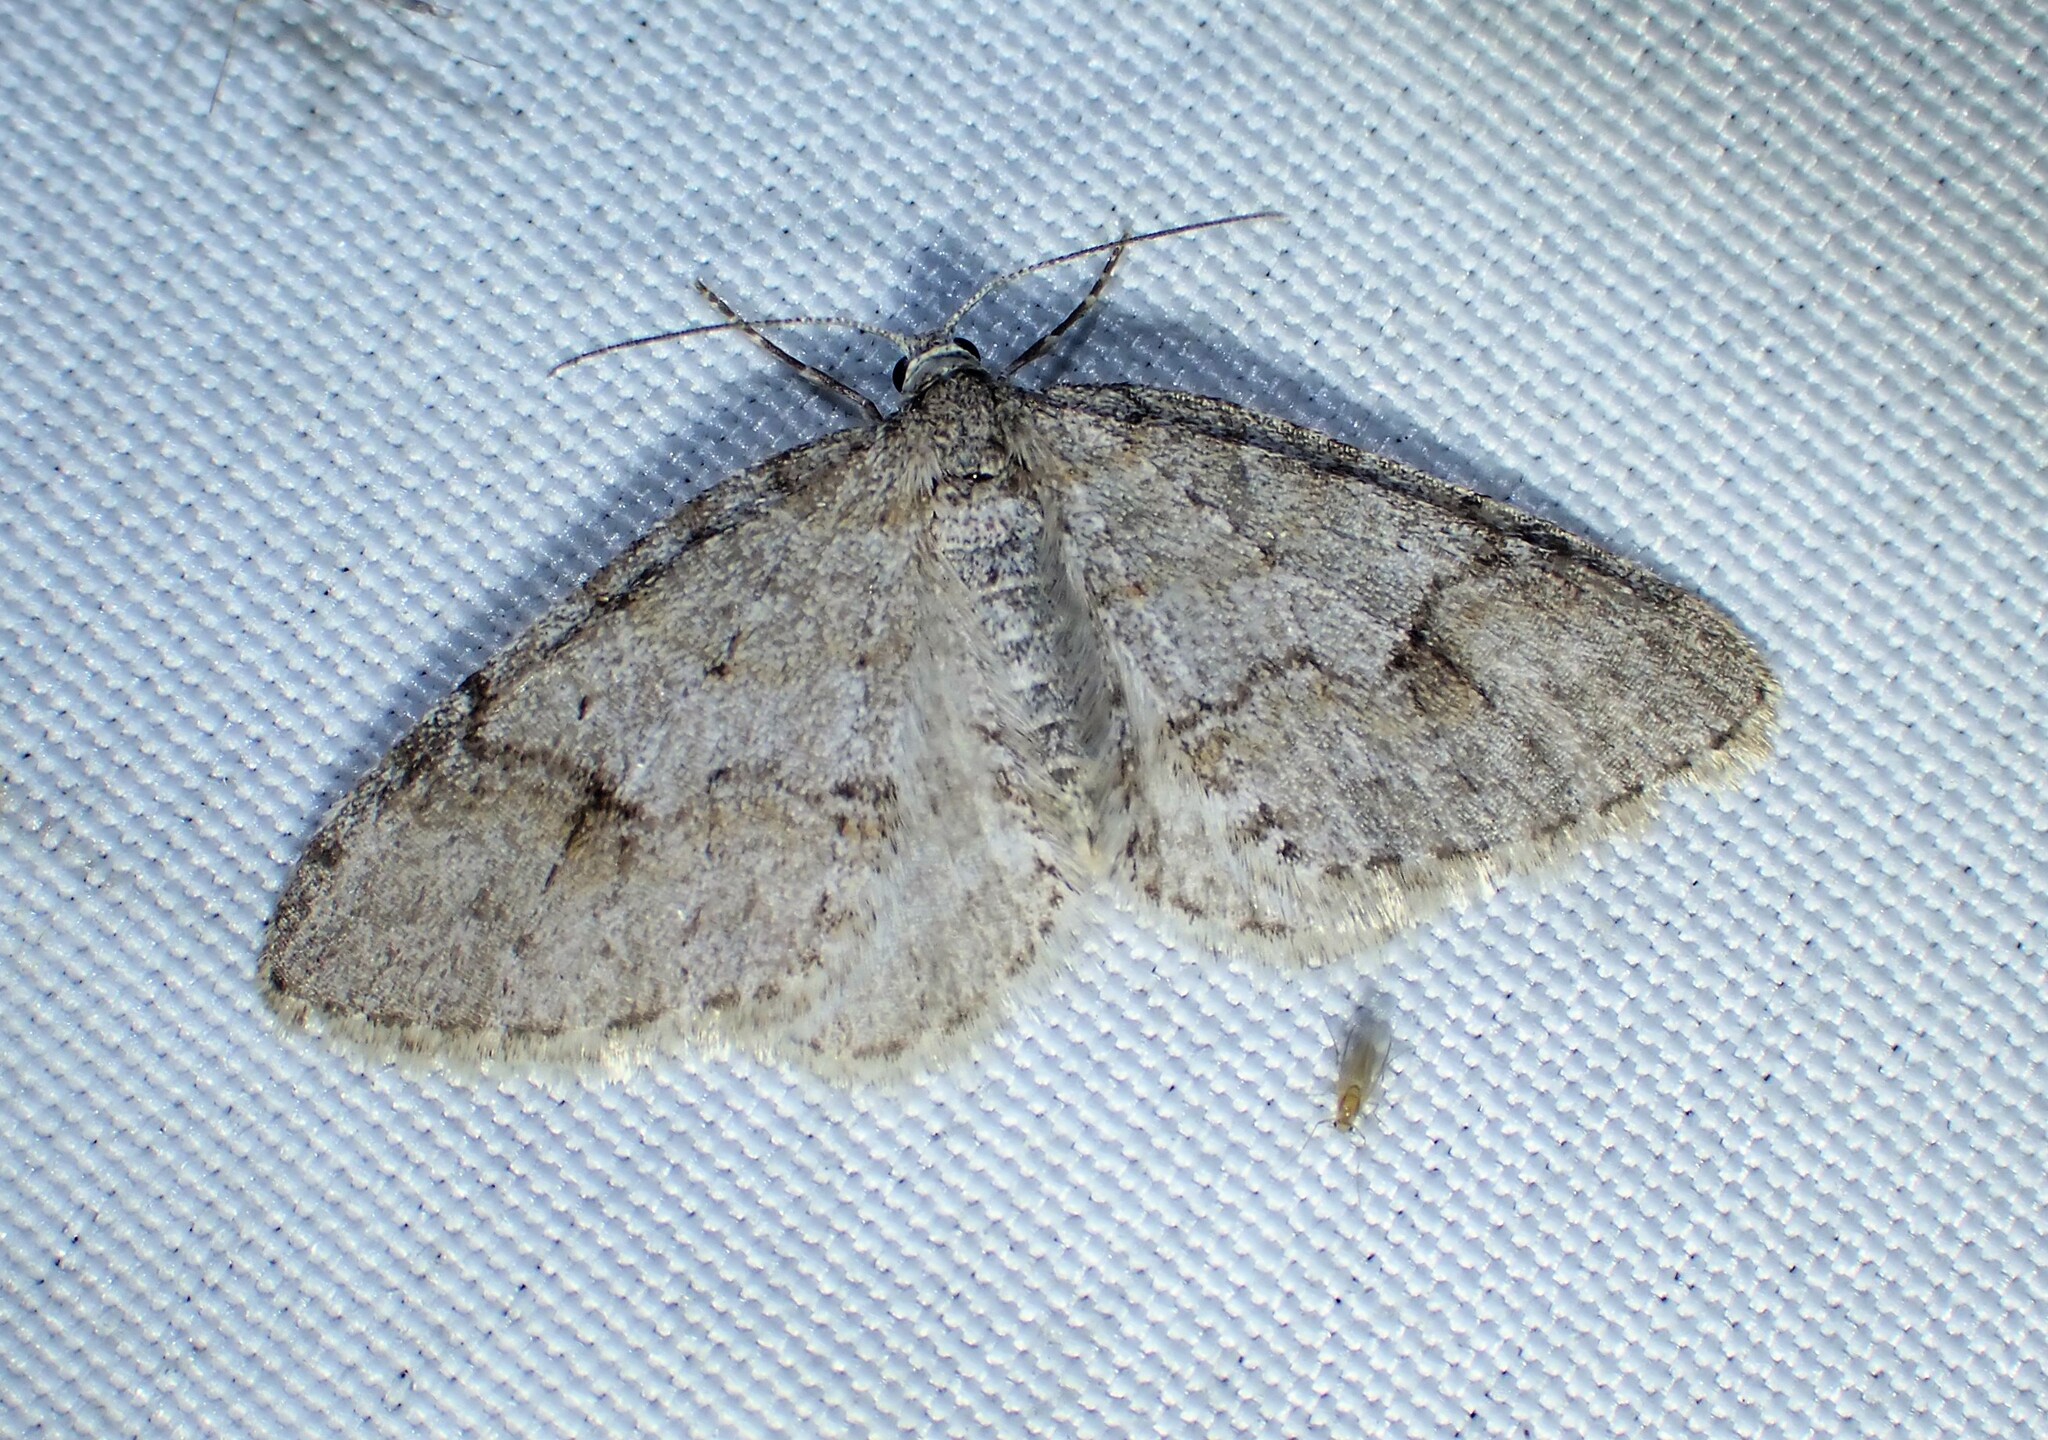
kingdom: Animalia
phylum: Arthropoda
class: Insecta
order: Lepidoptera
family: Geometridae
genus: Venusia
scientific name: Venusia comptaria
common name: Brown-shaded carpet
